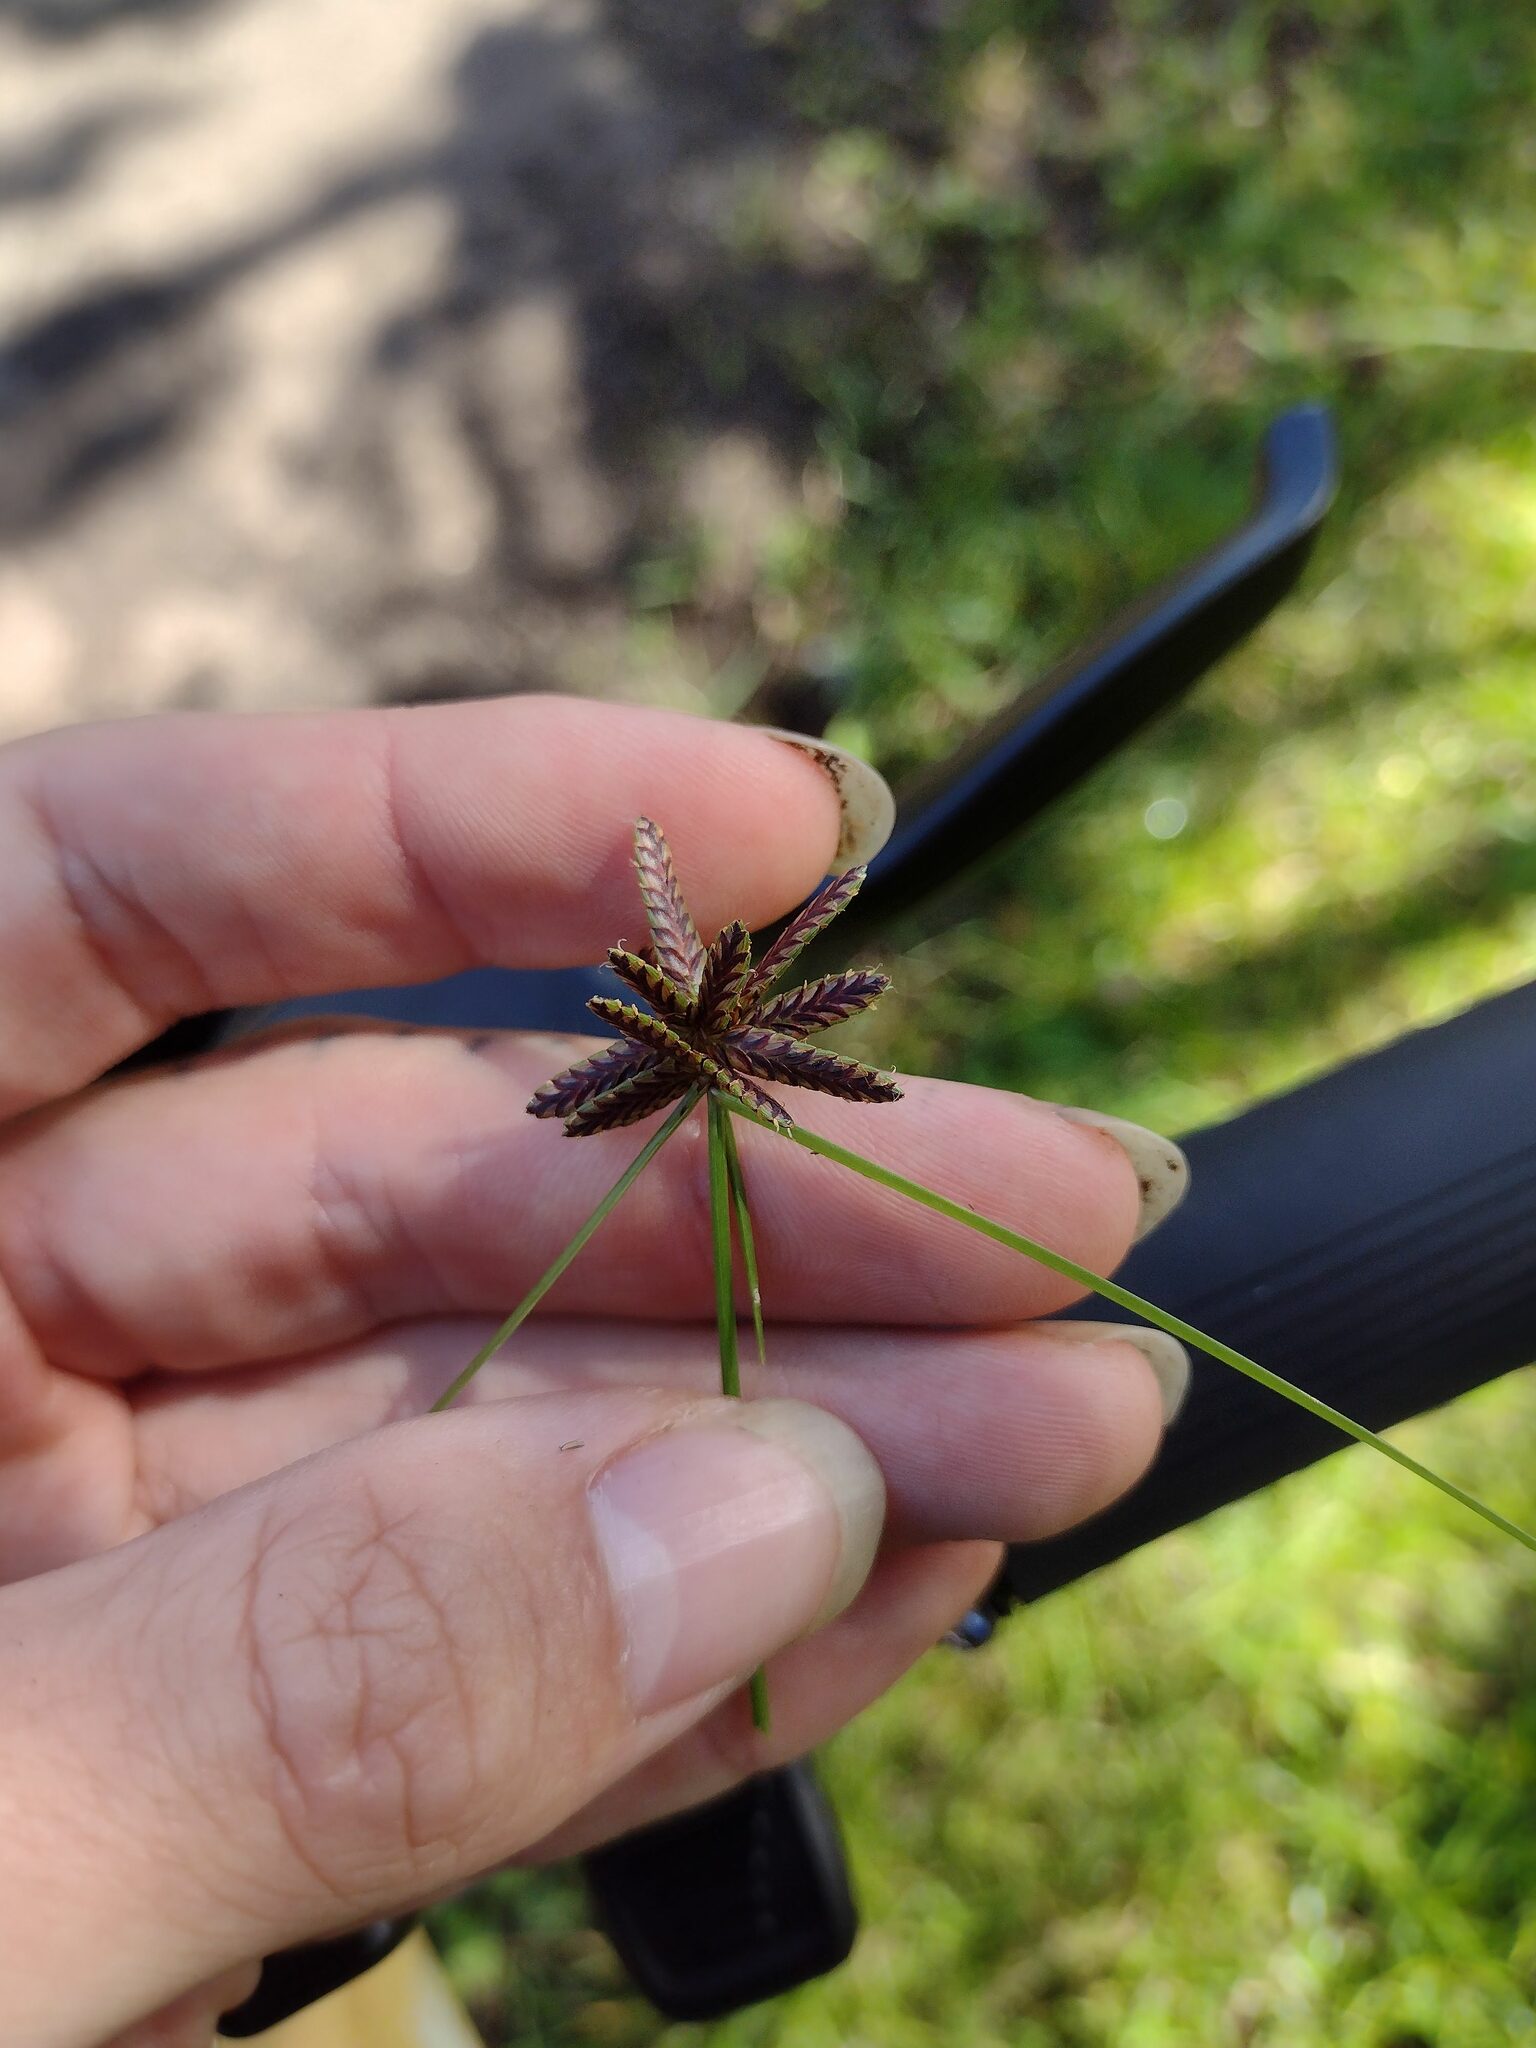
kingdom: Plantae
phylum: Tracheophyta
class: Liliopsida
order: Poales
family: Cyperaceae
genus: Cyperus
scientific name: Cyperus sanguinolentus
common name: Purpleglume flatsedge
